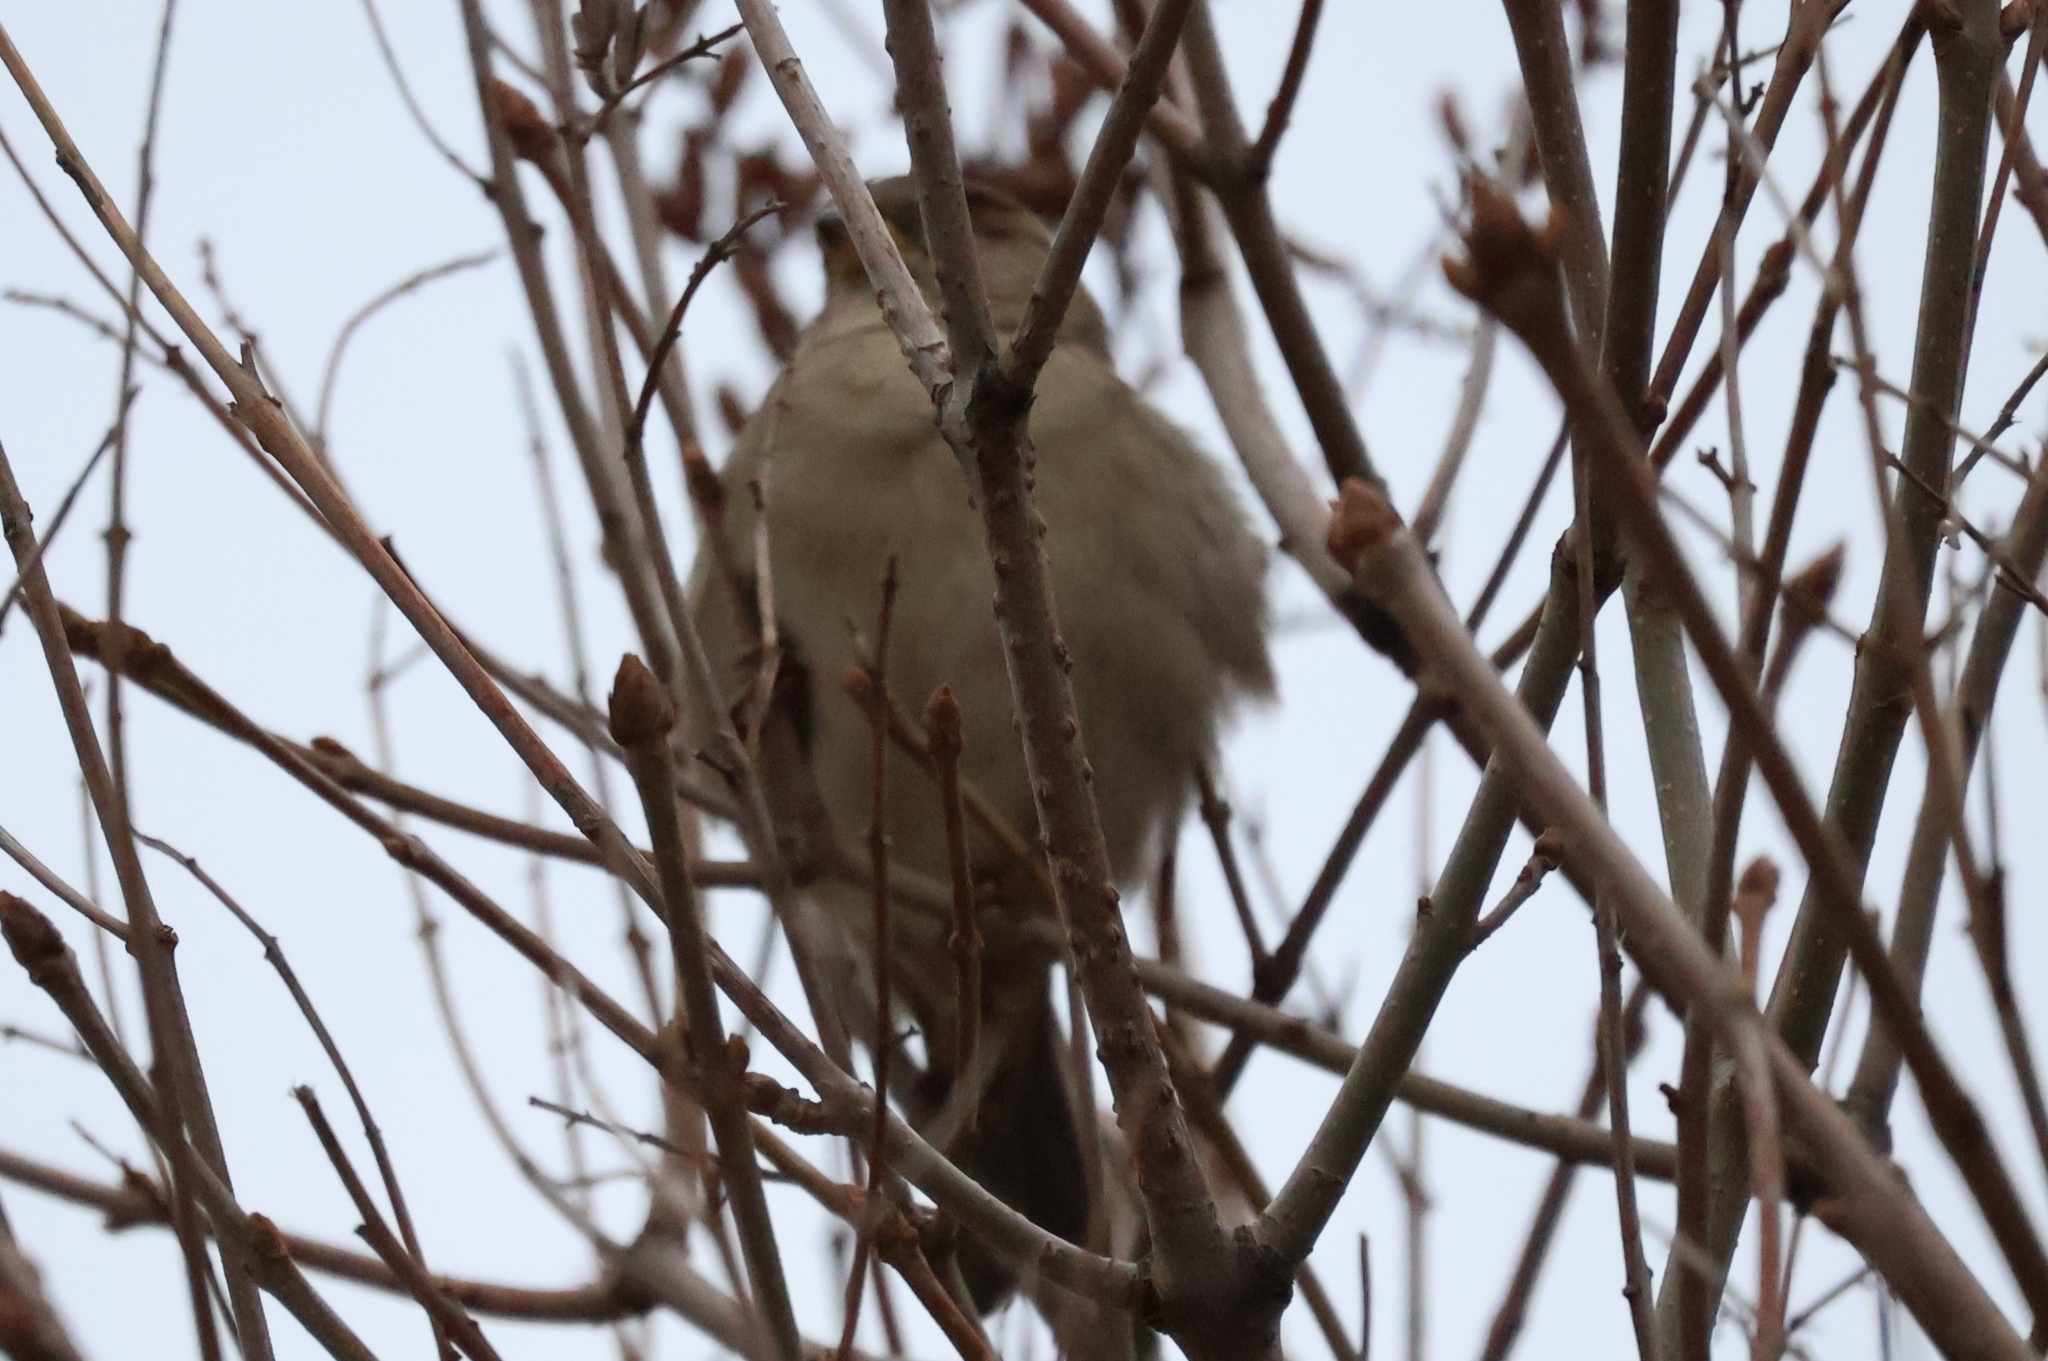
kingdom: Animalia
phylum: Chordata
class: Aves
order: Passeriformes
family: Passeridae
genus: Passer
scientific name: Passer domesticus
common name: House sparrow
